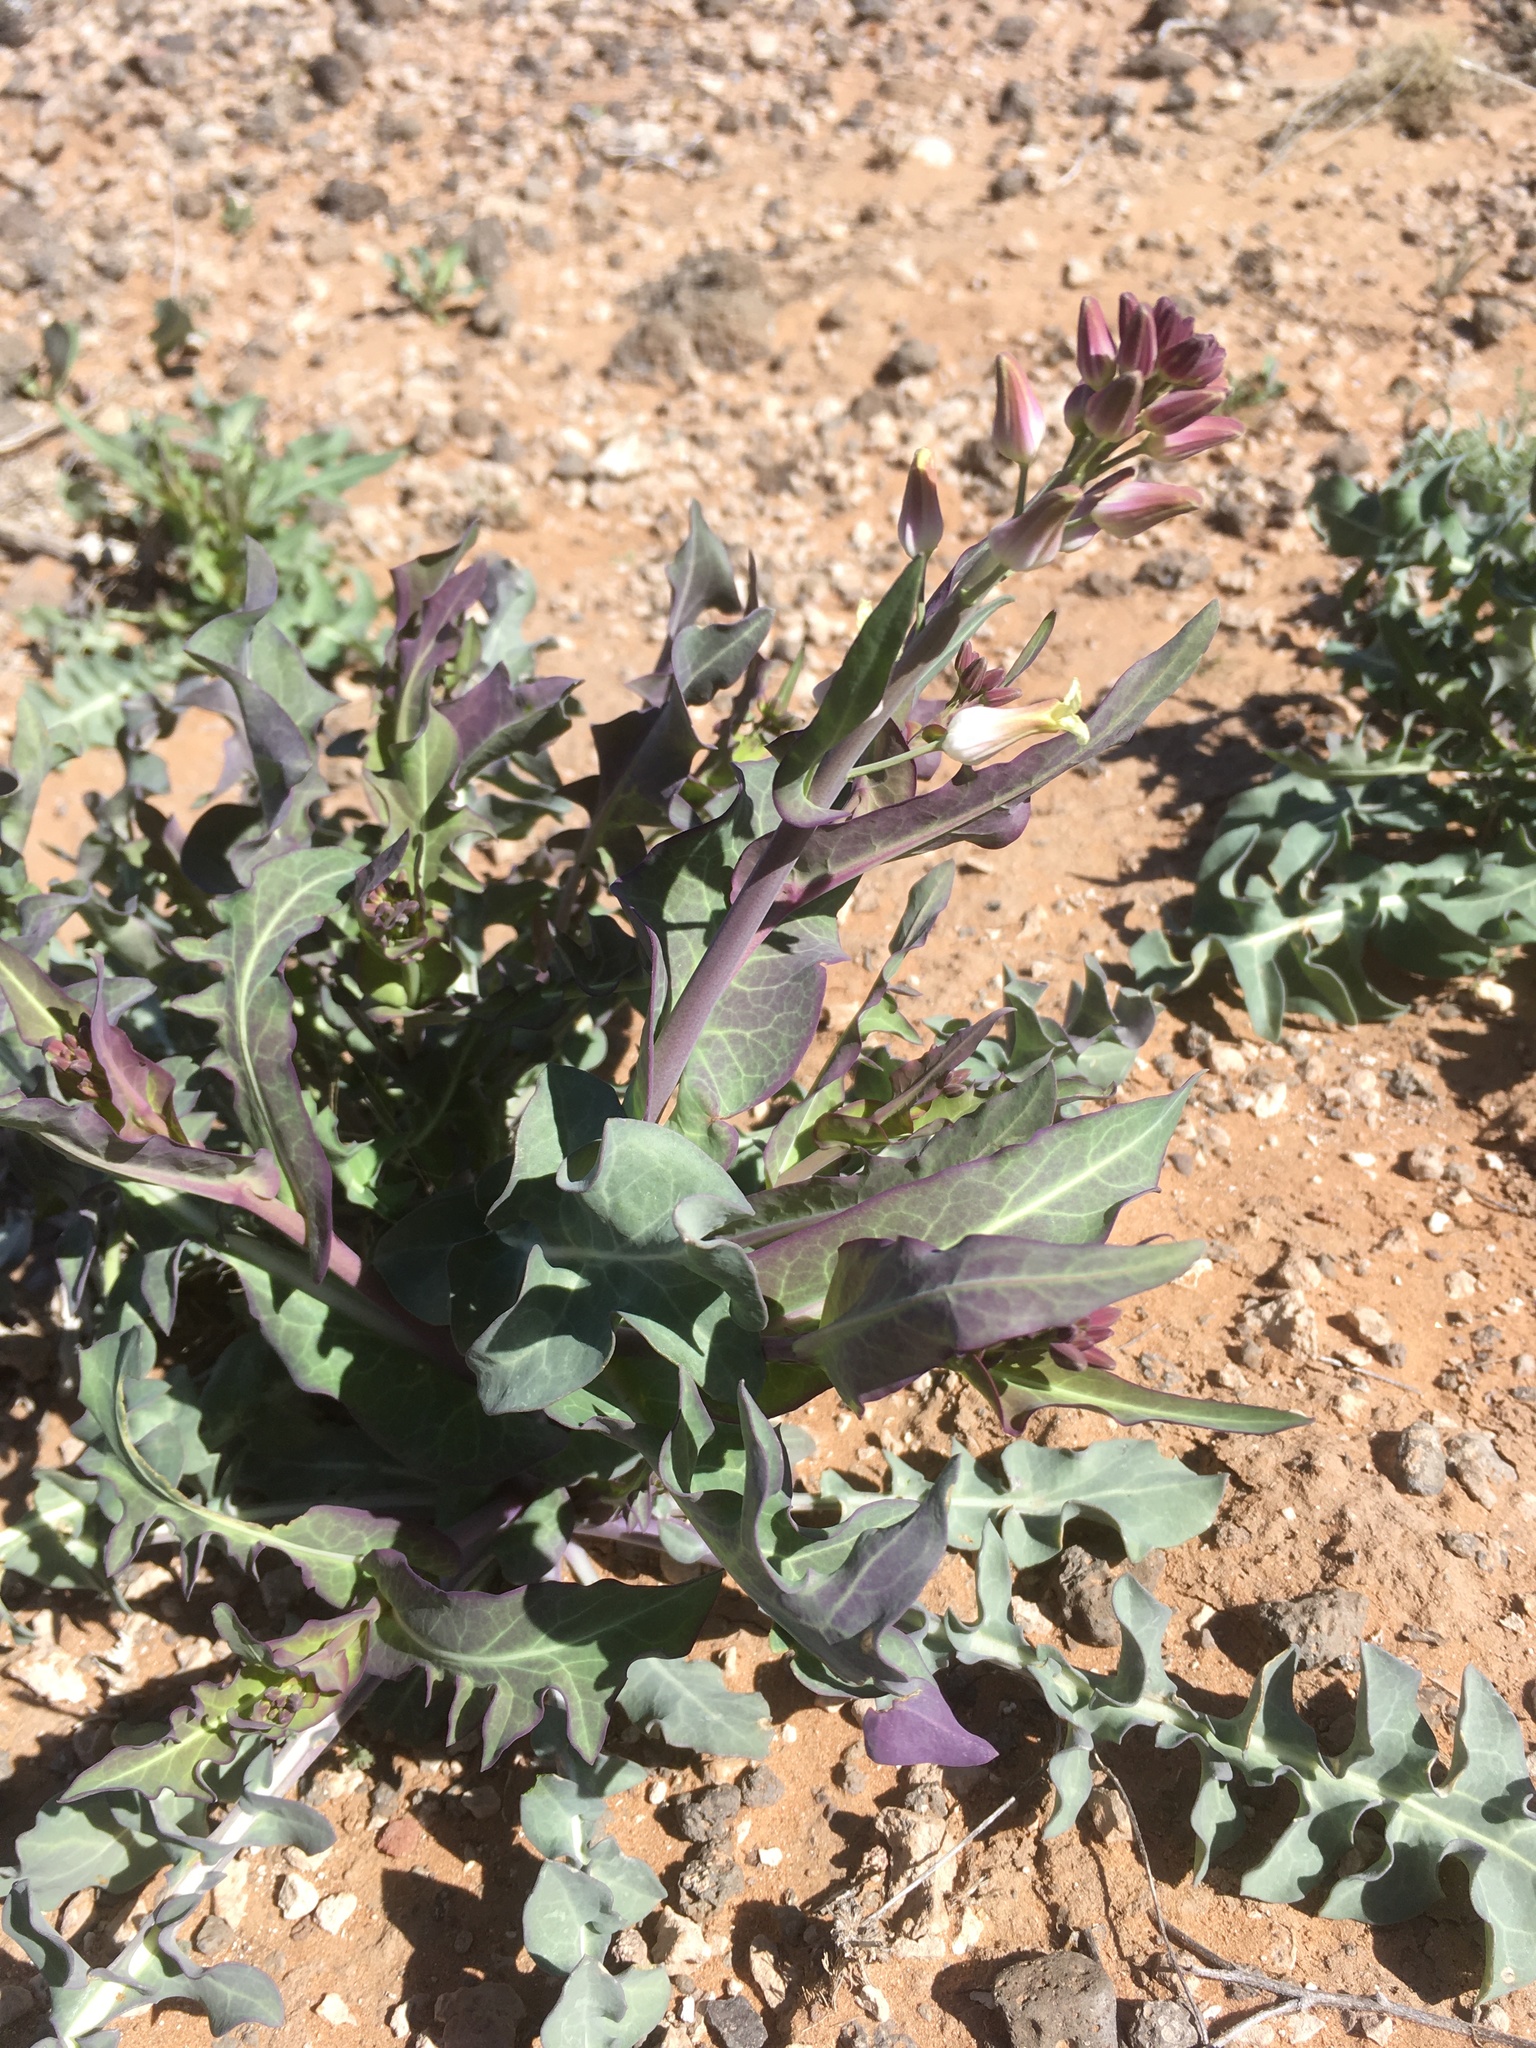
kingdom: Plantae
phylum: Tracheophyta
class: Magnoliopsida
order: Brassicales
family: Brassicaceae
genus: Streptanthus
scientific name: Streptanthus carinatus
